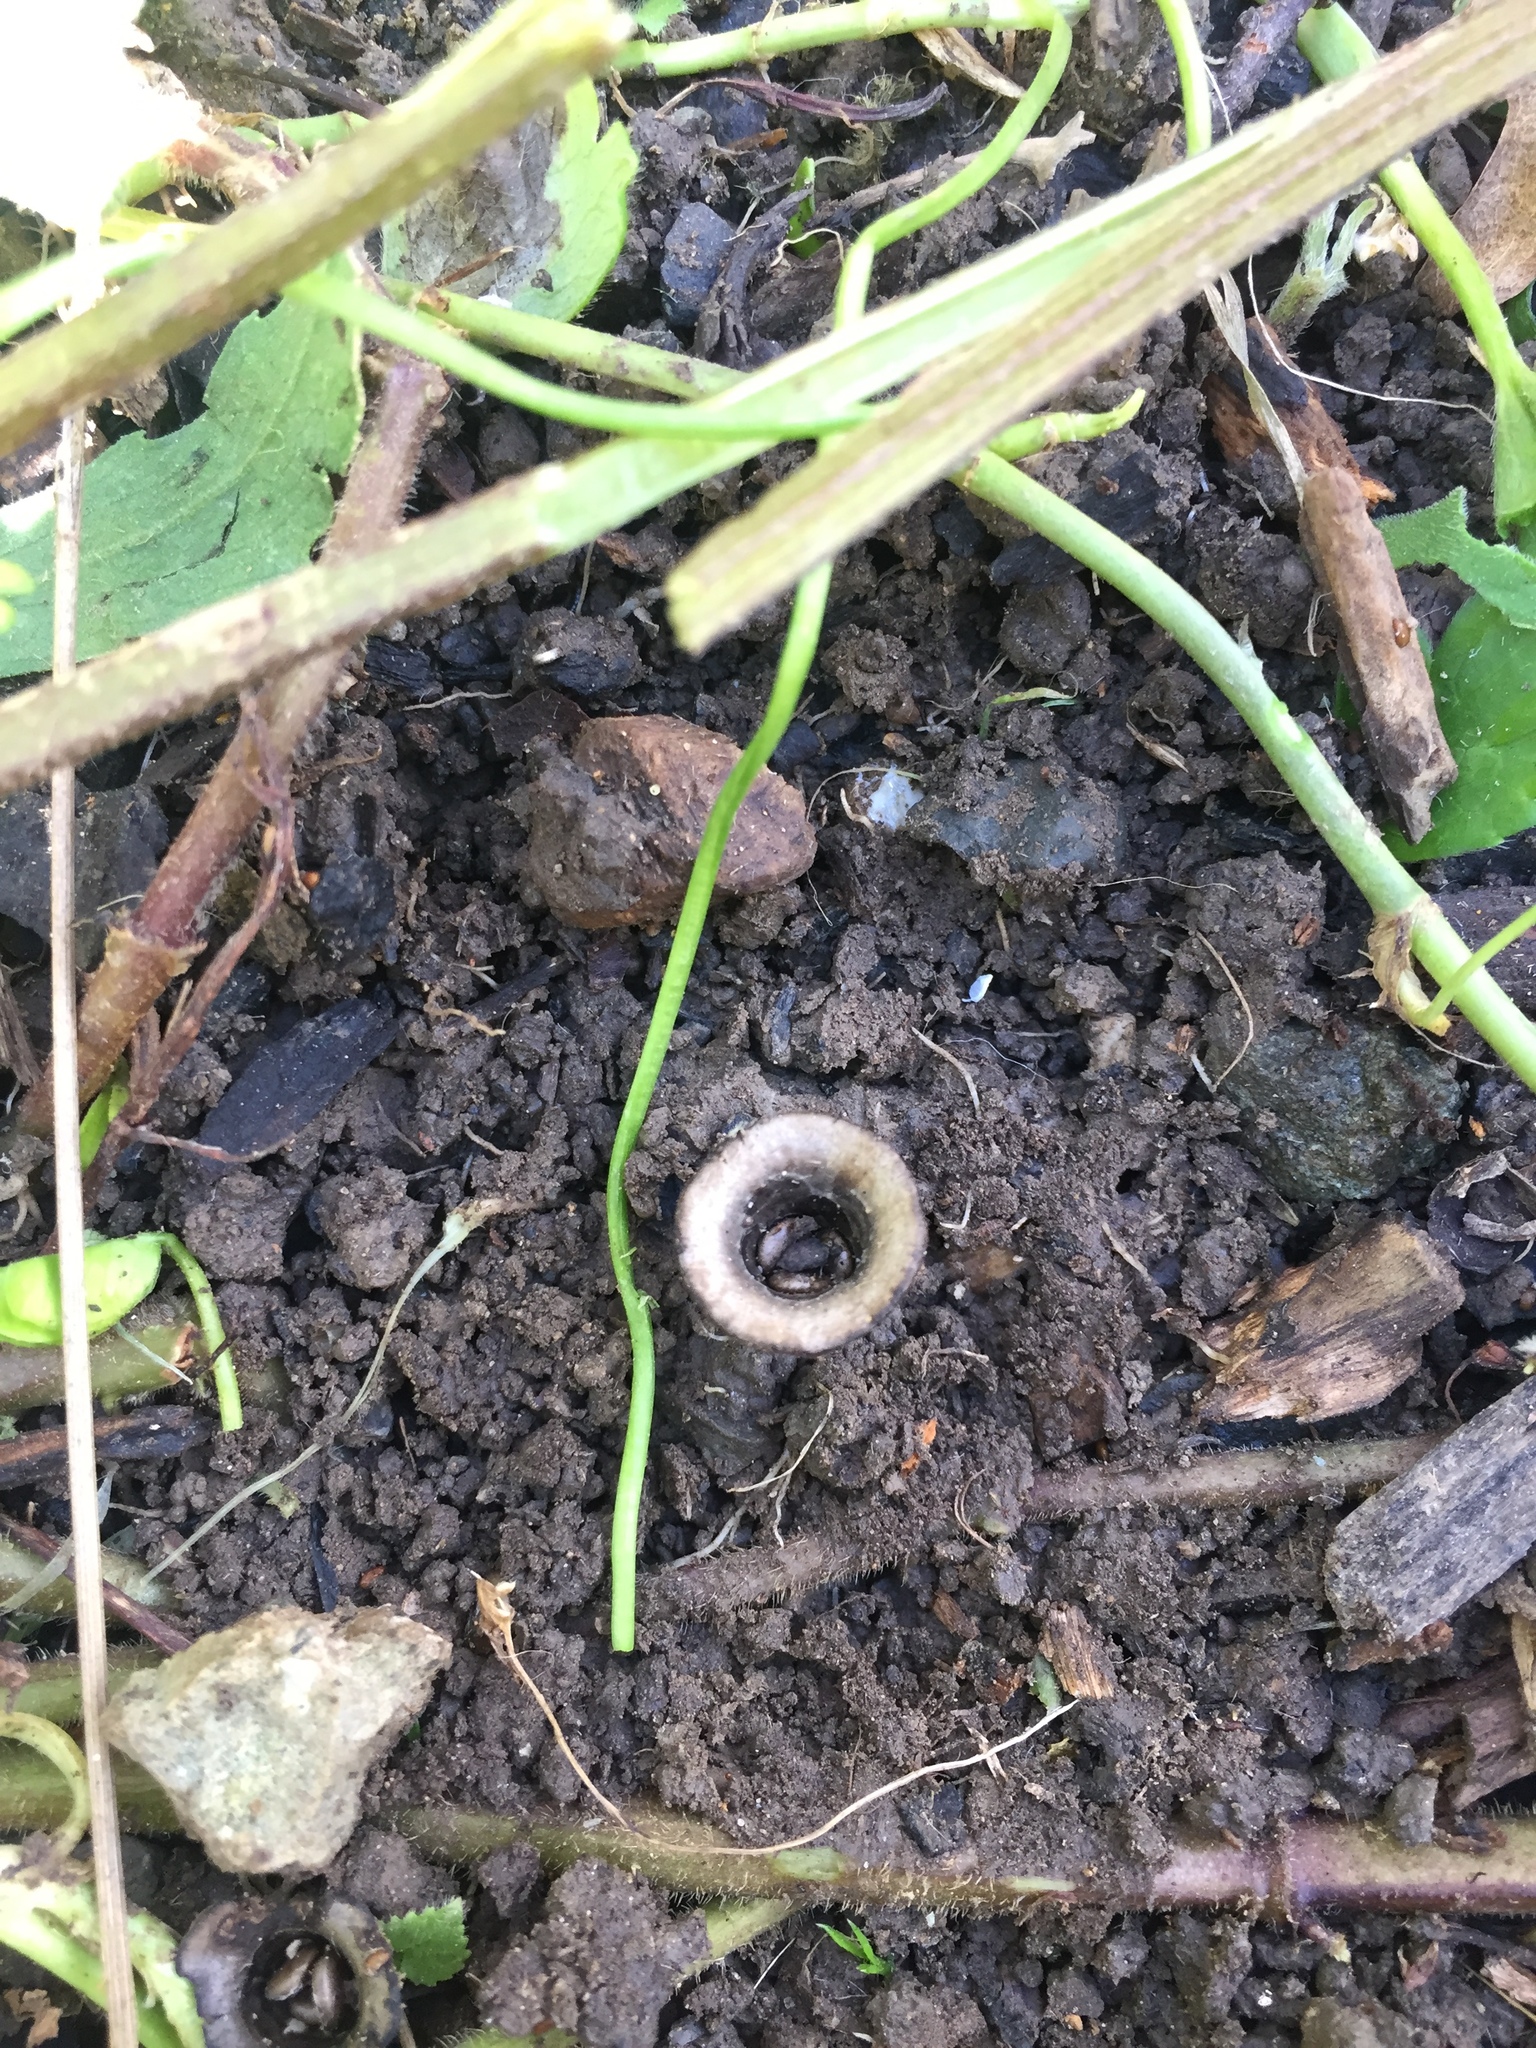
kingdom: Fungi
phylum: Basidiomycota
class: Agaricomycetes
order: Agaricales
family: Agaricaceae
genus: Cyathus
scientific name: Cyathus olla
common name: Field bird's nest
